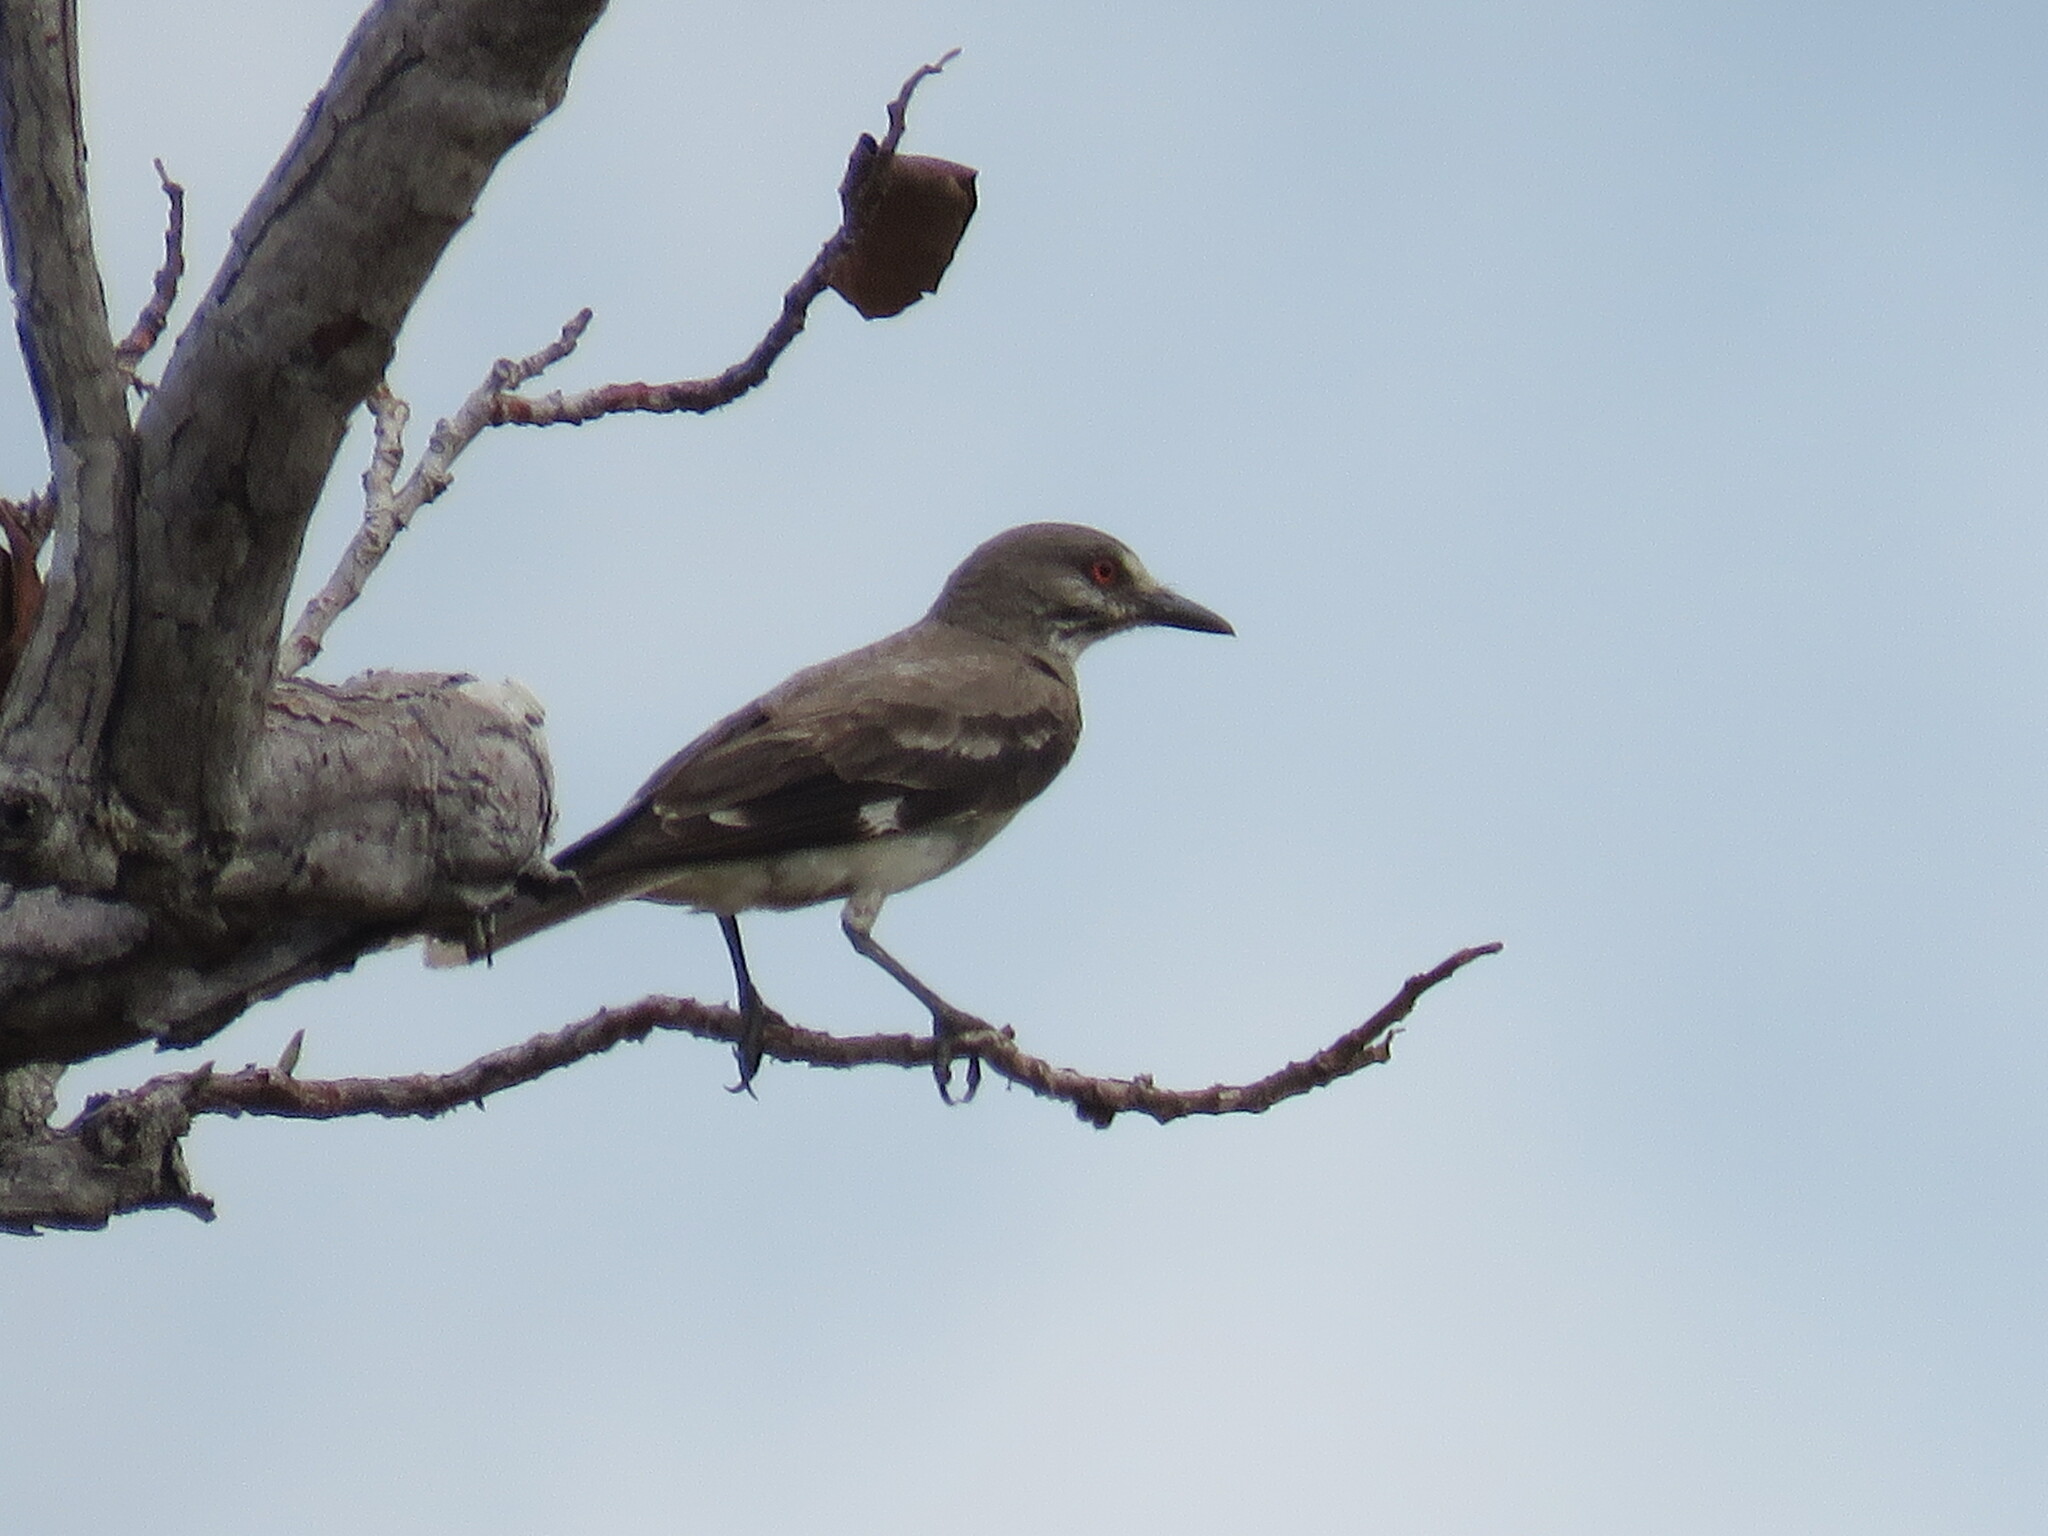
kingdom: Animalia
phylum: Chordata
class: Aves
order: Passeriformes
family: Tyrannidae
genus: Xolmis
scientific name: Xolmis cinereus
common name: Grey monjita
